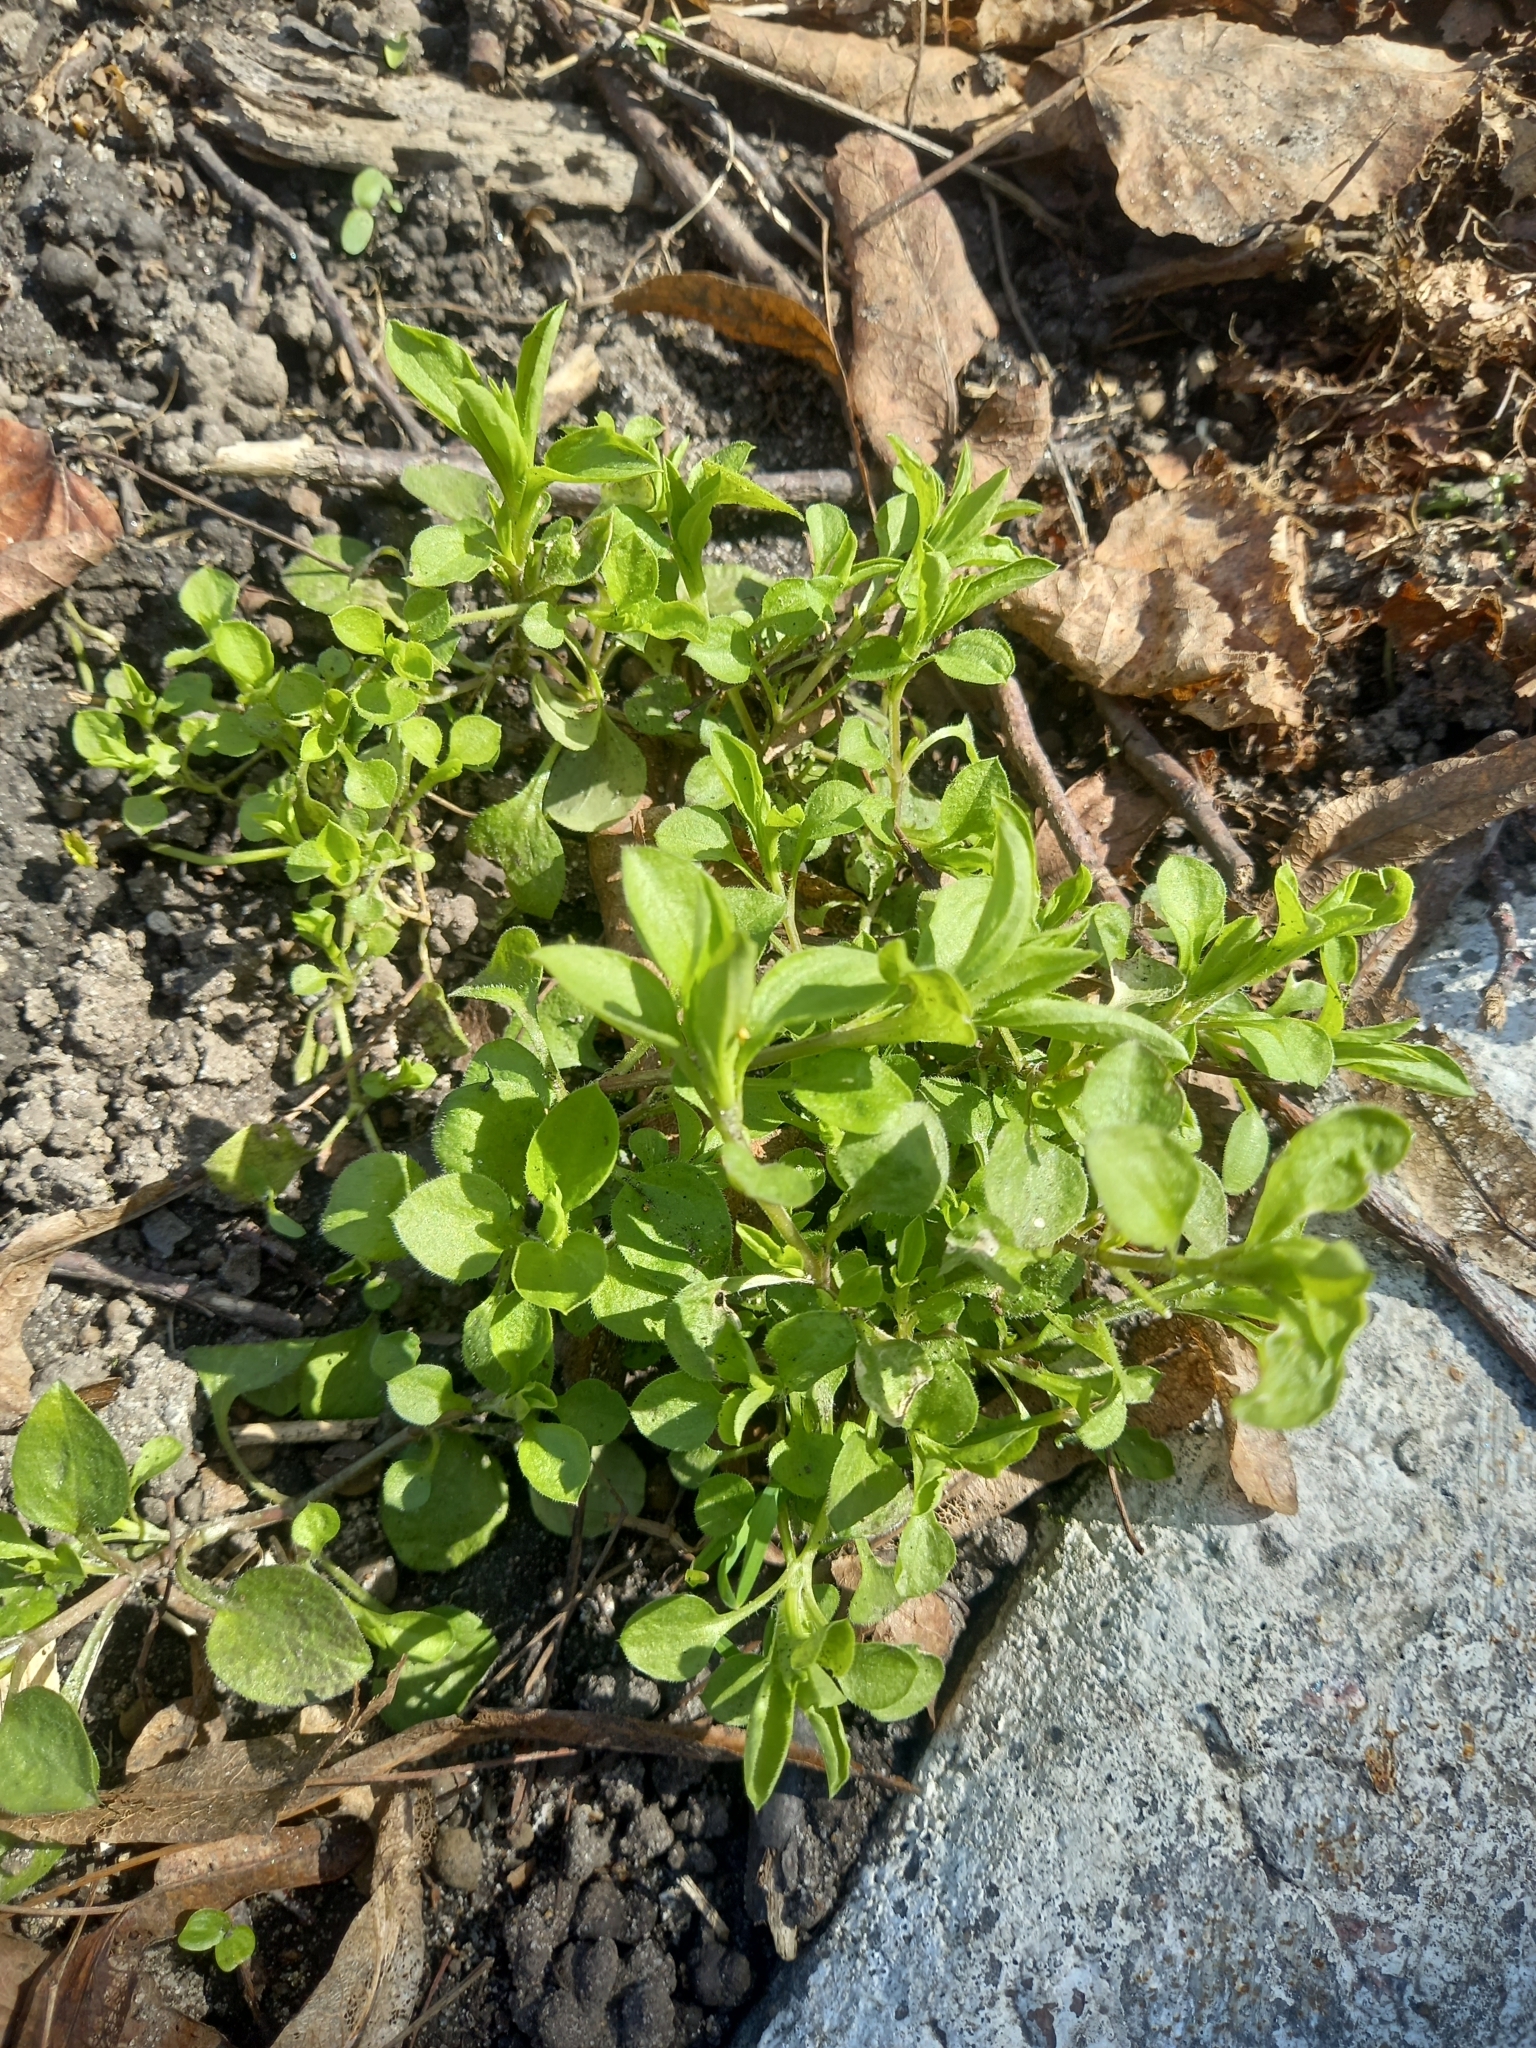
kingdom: Plantae
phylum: Tracheophyta
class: Magnoliopsida
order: Caryophyllales
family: Caryophyllaceae
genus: Moehringia
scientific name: Moehringia trinervia
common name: Three-nerved sandwort
